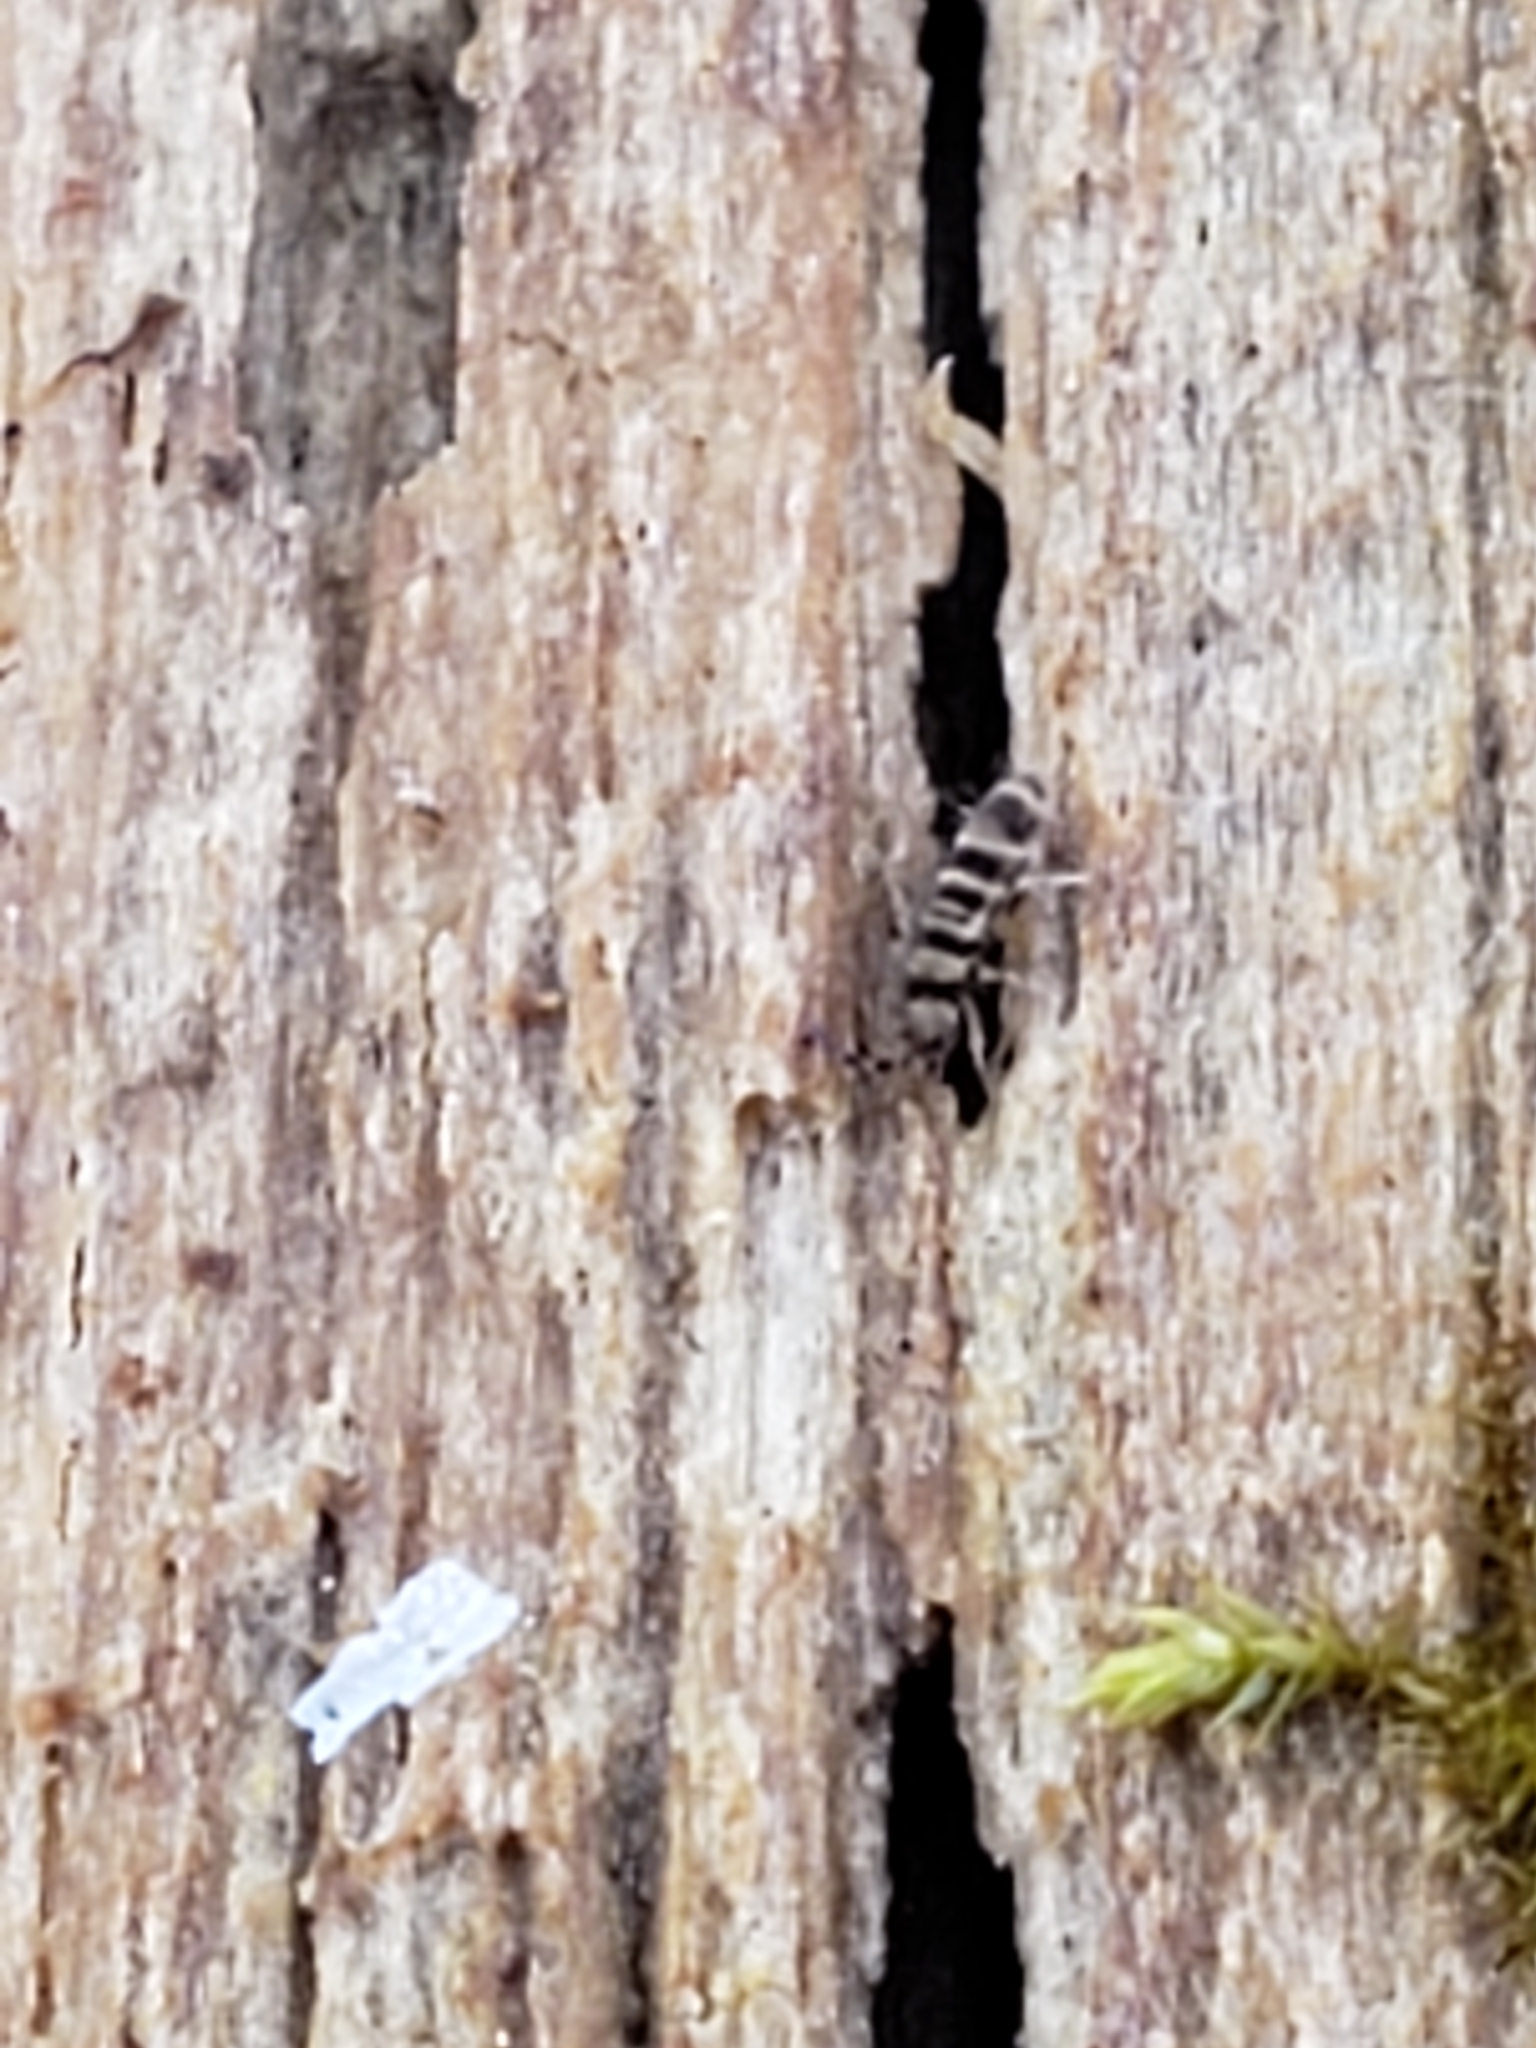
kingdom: Animalia
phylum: Arthropoda
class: Collembola
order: Entomobryomorpha
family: Orchesellidae
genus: Orchesella
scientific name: Orchesella hexfasciata
